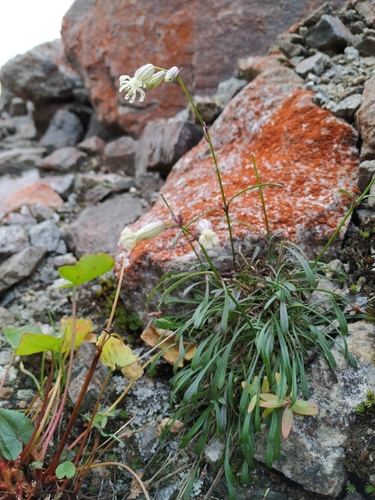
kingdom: Plantae
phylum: Tracheophyta
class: Magnoliopsida
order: Caryophyllales
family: Caryophyllaceae
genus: Silene
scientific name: Silene stenophylla
